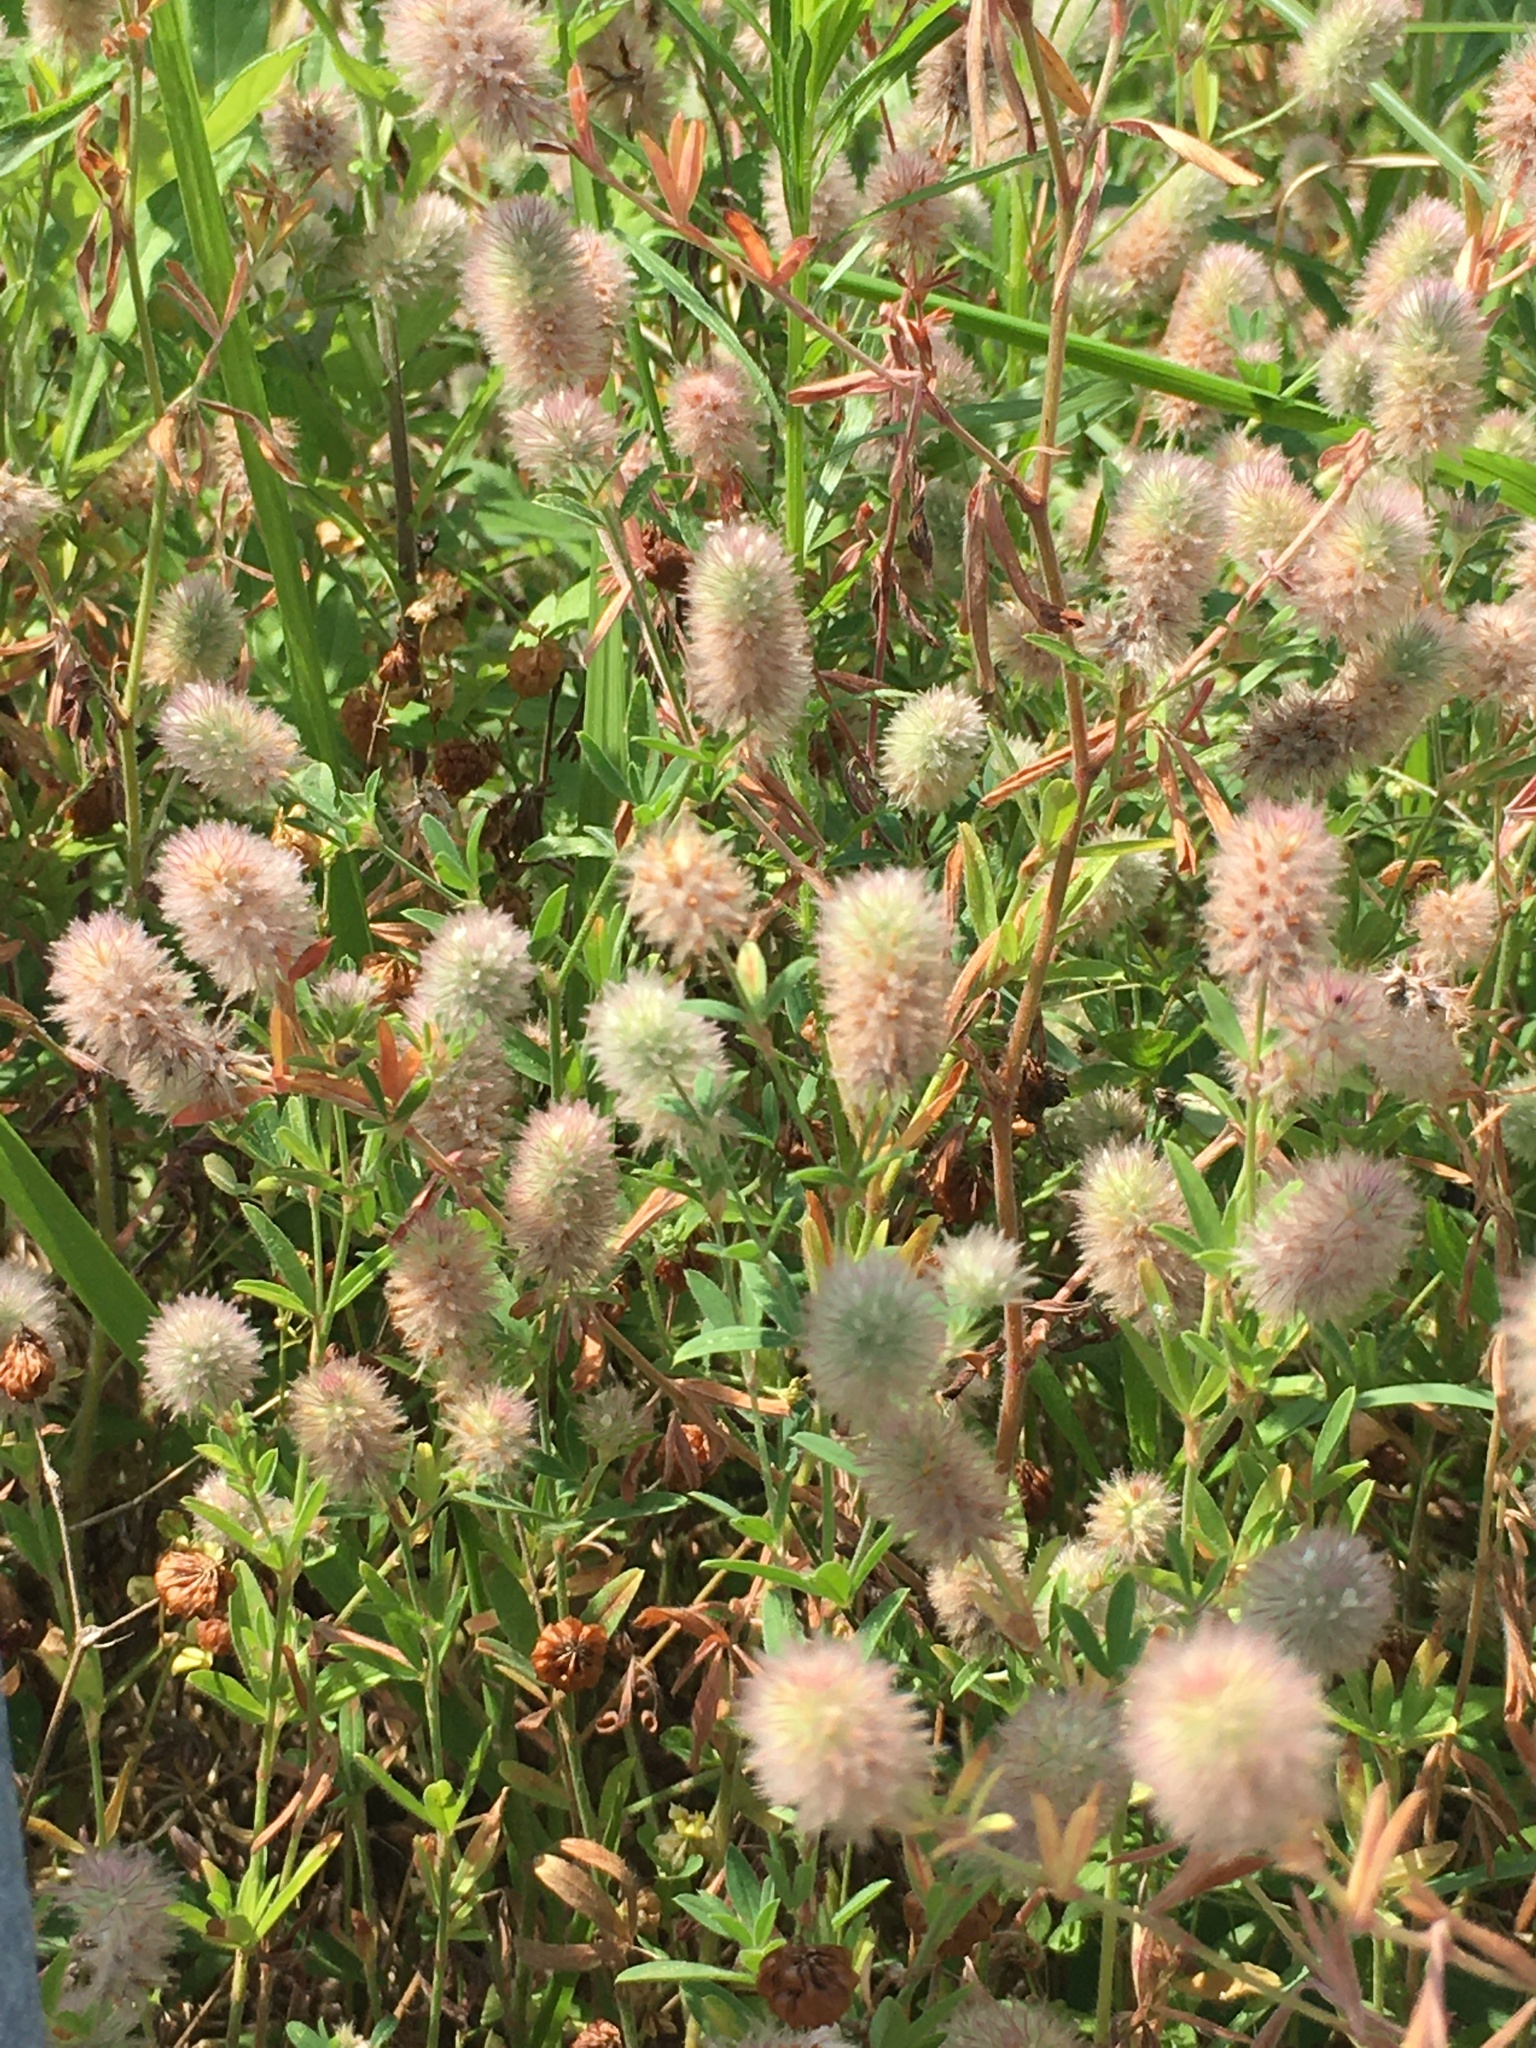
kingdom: Plantae
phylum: Tracheophyta
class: Magnoliopsida
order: Fabales
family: Fabaceae
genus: Trifolium
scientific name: Trifolium arvense
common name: Hare's-foot clover
